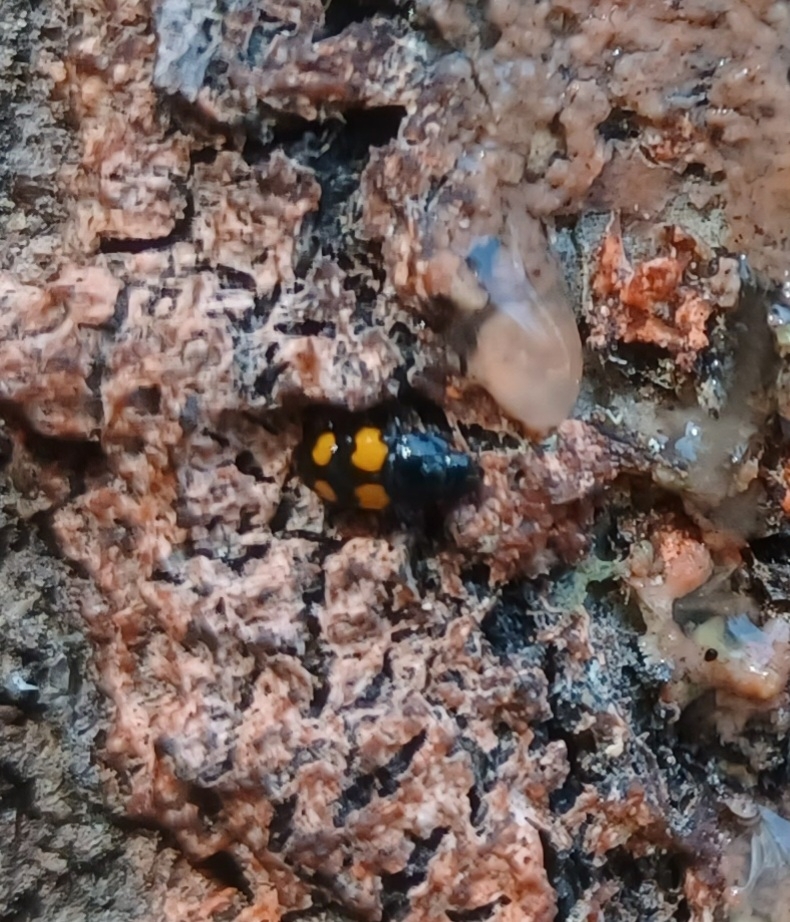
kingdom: Animalia
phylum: Arthropoda
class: Insecta
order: Coleoptera
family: Nitidulidae
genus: Glischrochilus
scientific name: Glischrochilus grandis
